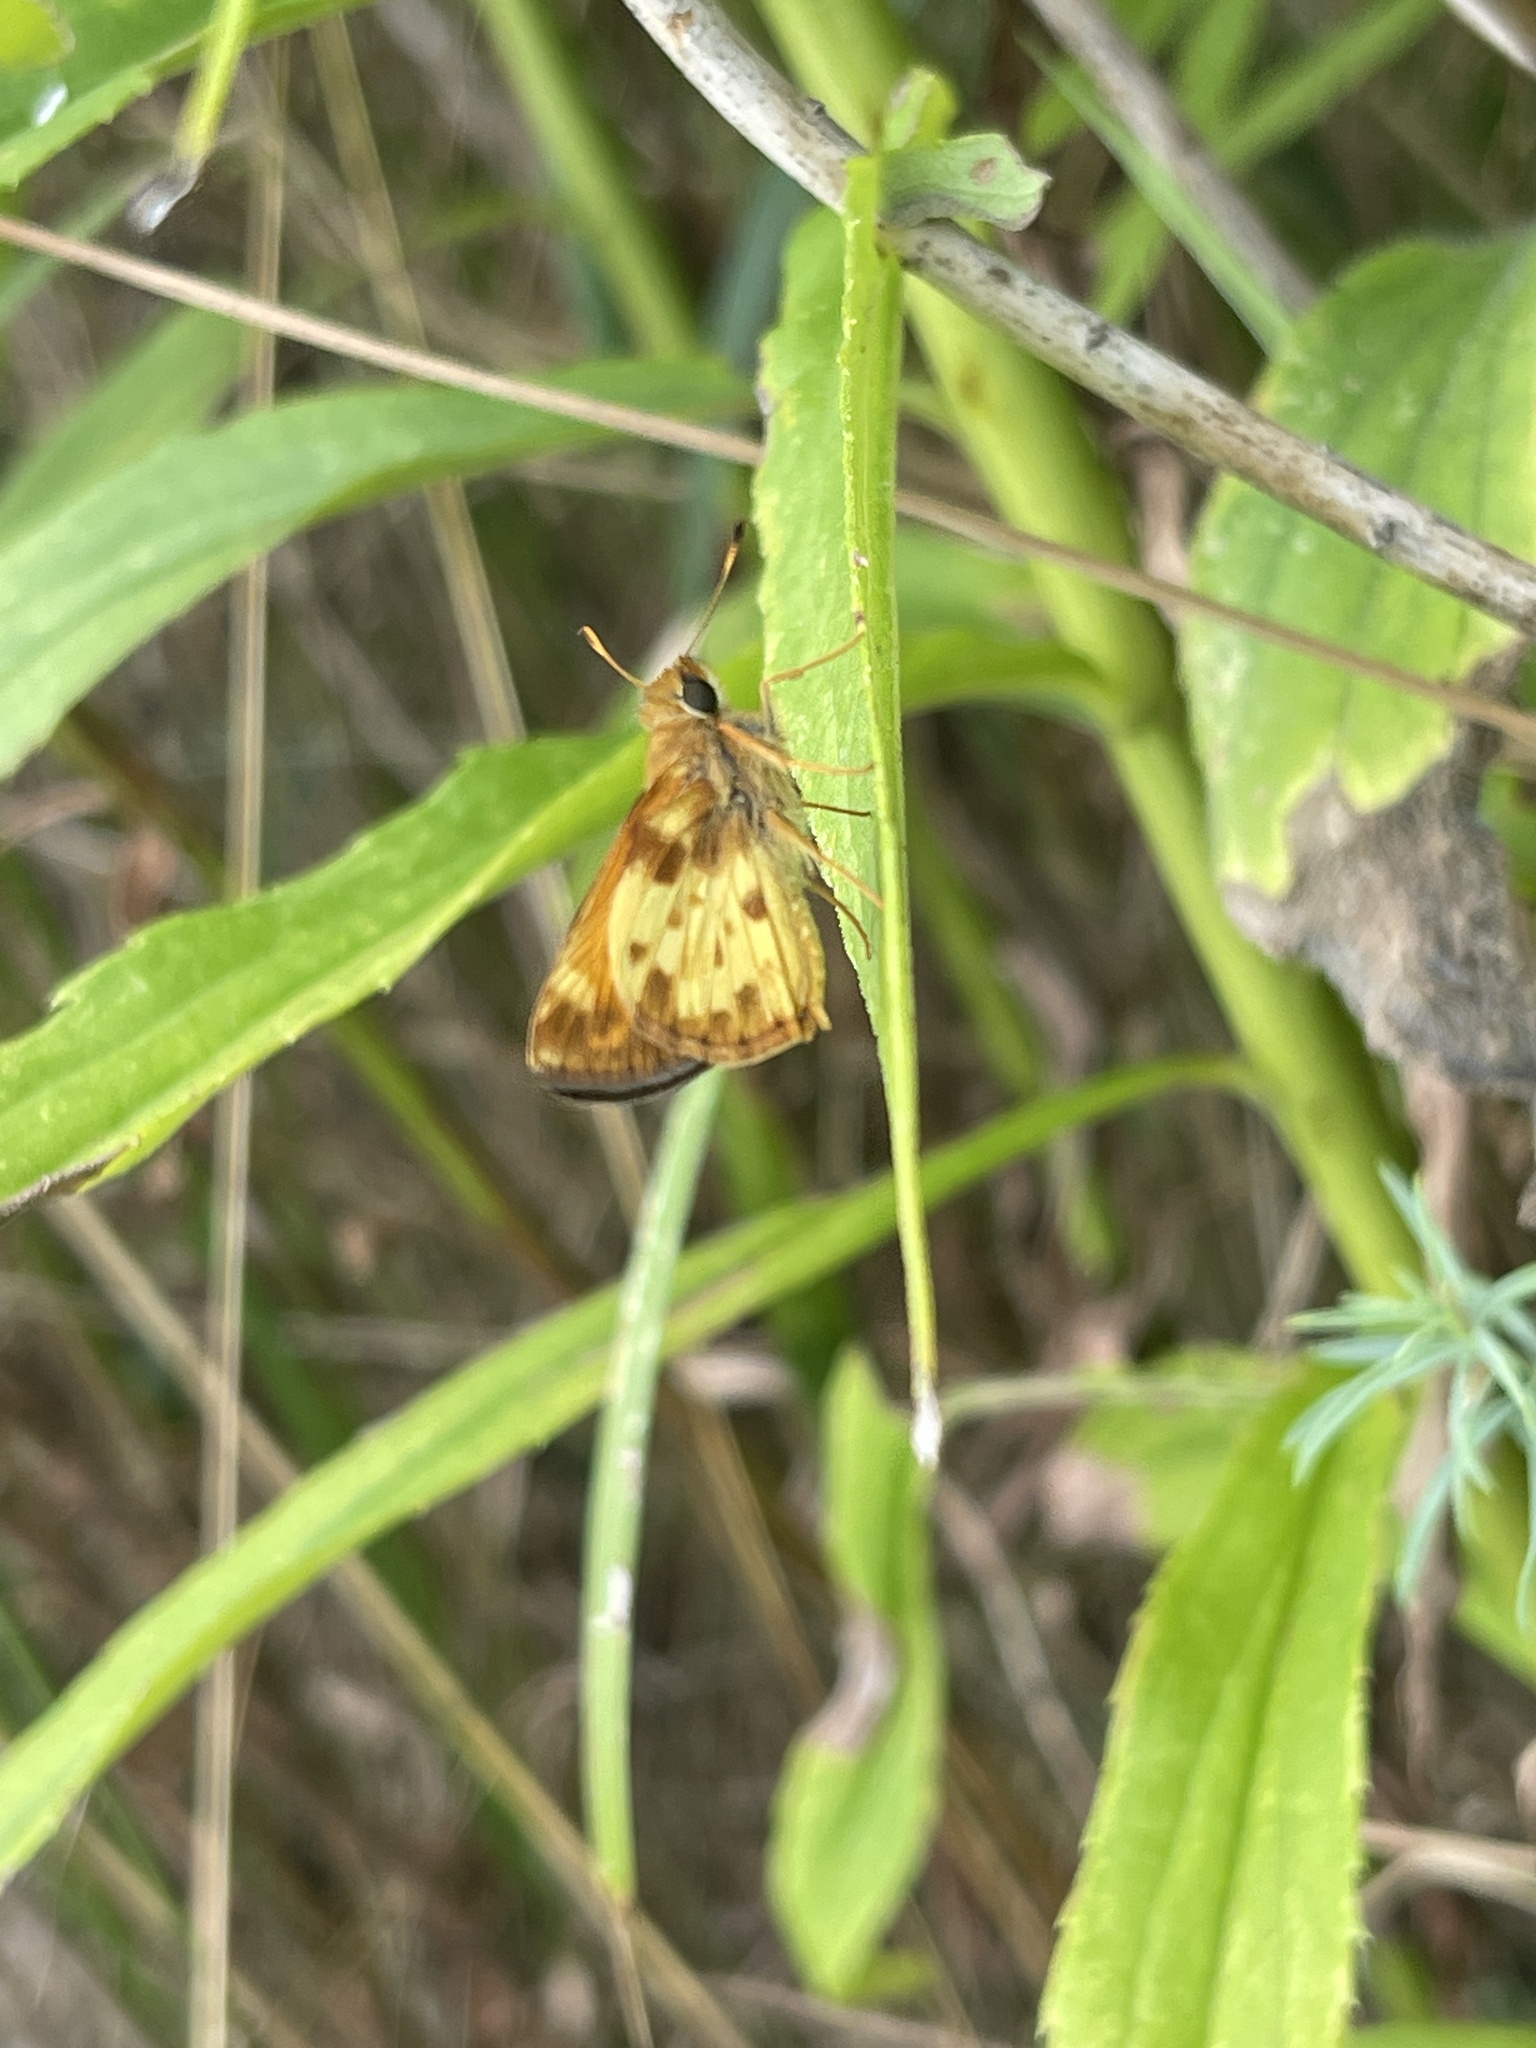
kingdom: Animalia
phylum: Arthropoda
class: Insecta
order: Lepidoptera
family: Hesperiidae
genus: Lon
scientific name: Lon zabulon
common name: Zabulon skipper
